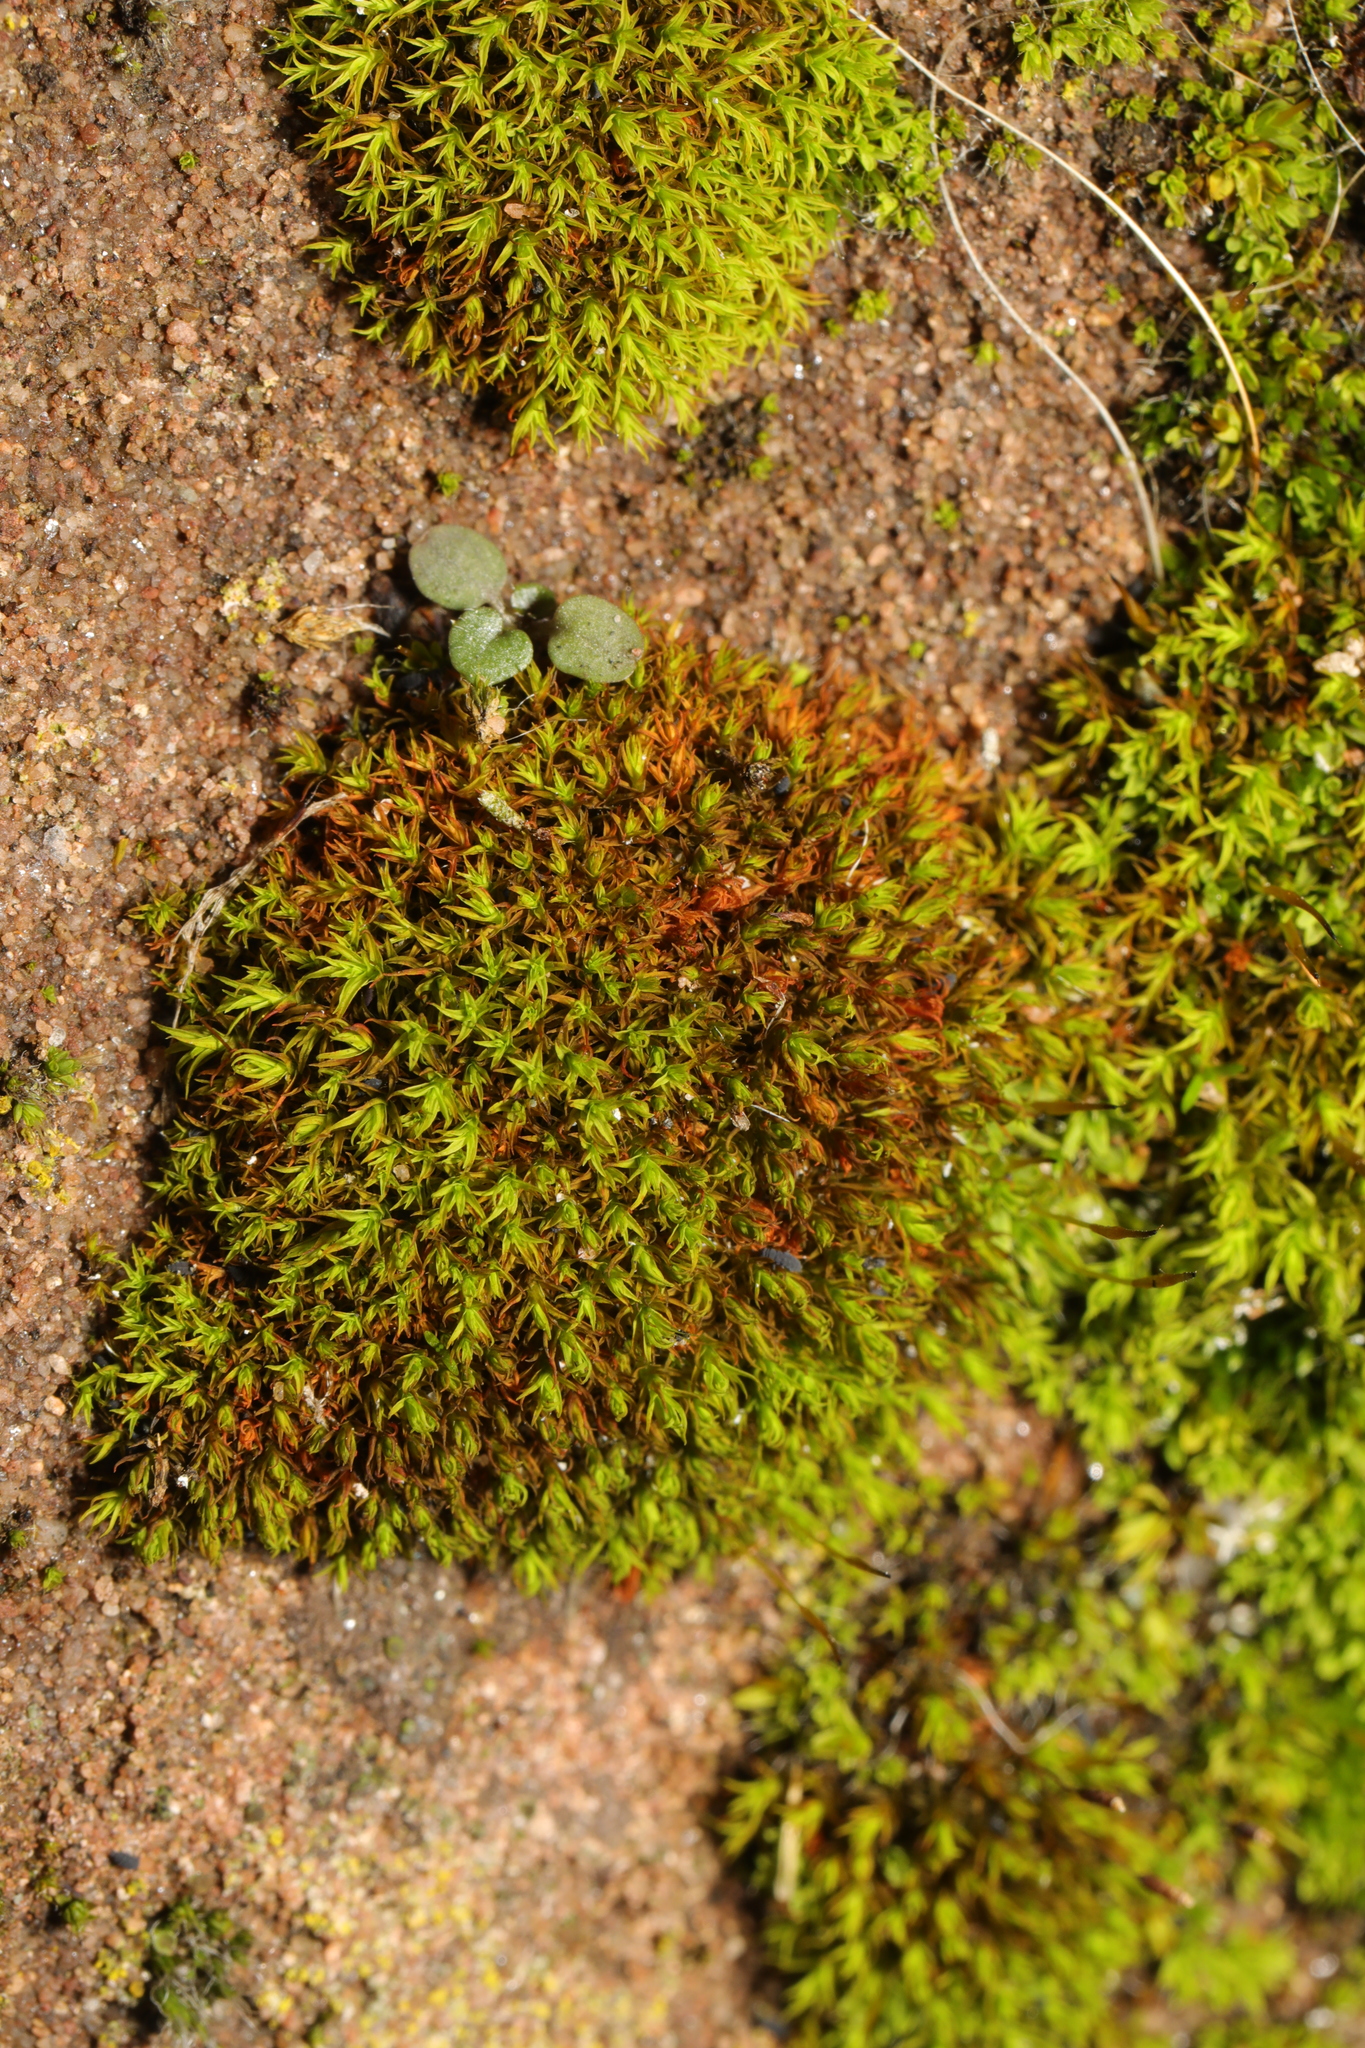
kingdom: Plantae
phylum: Bryophyta
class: Bryopsida
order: Pottiales
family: Pottiaceae
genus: Tortula
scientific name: Tortula muralis
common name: Wall screw-moss
